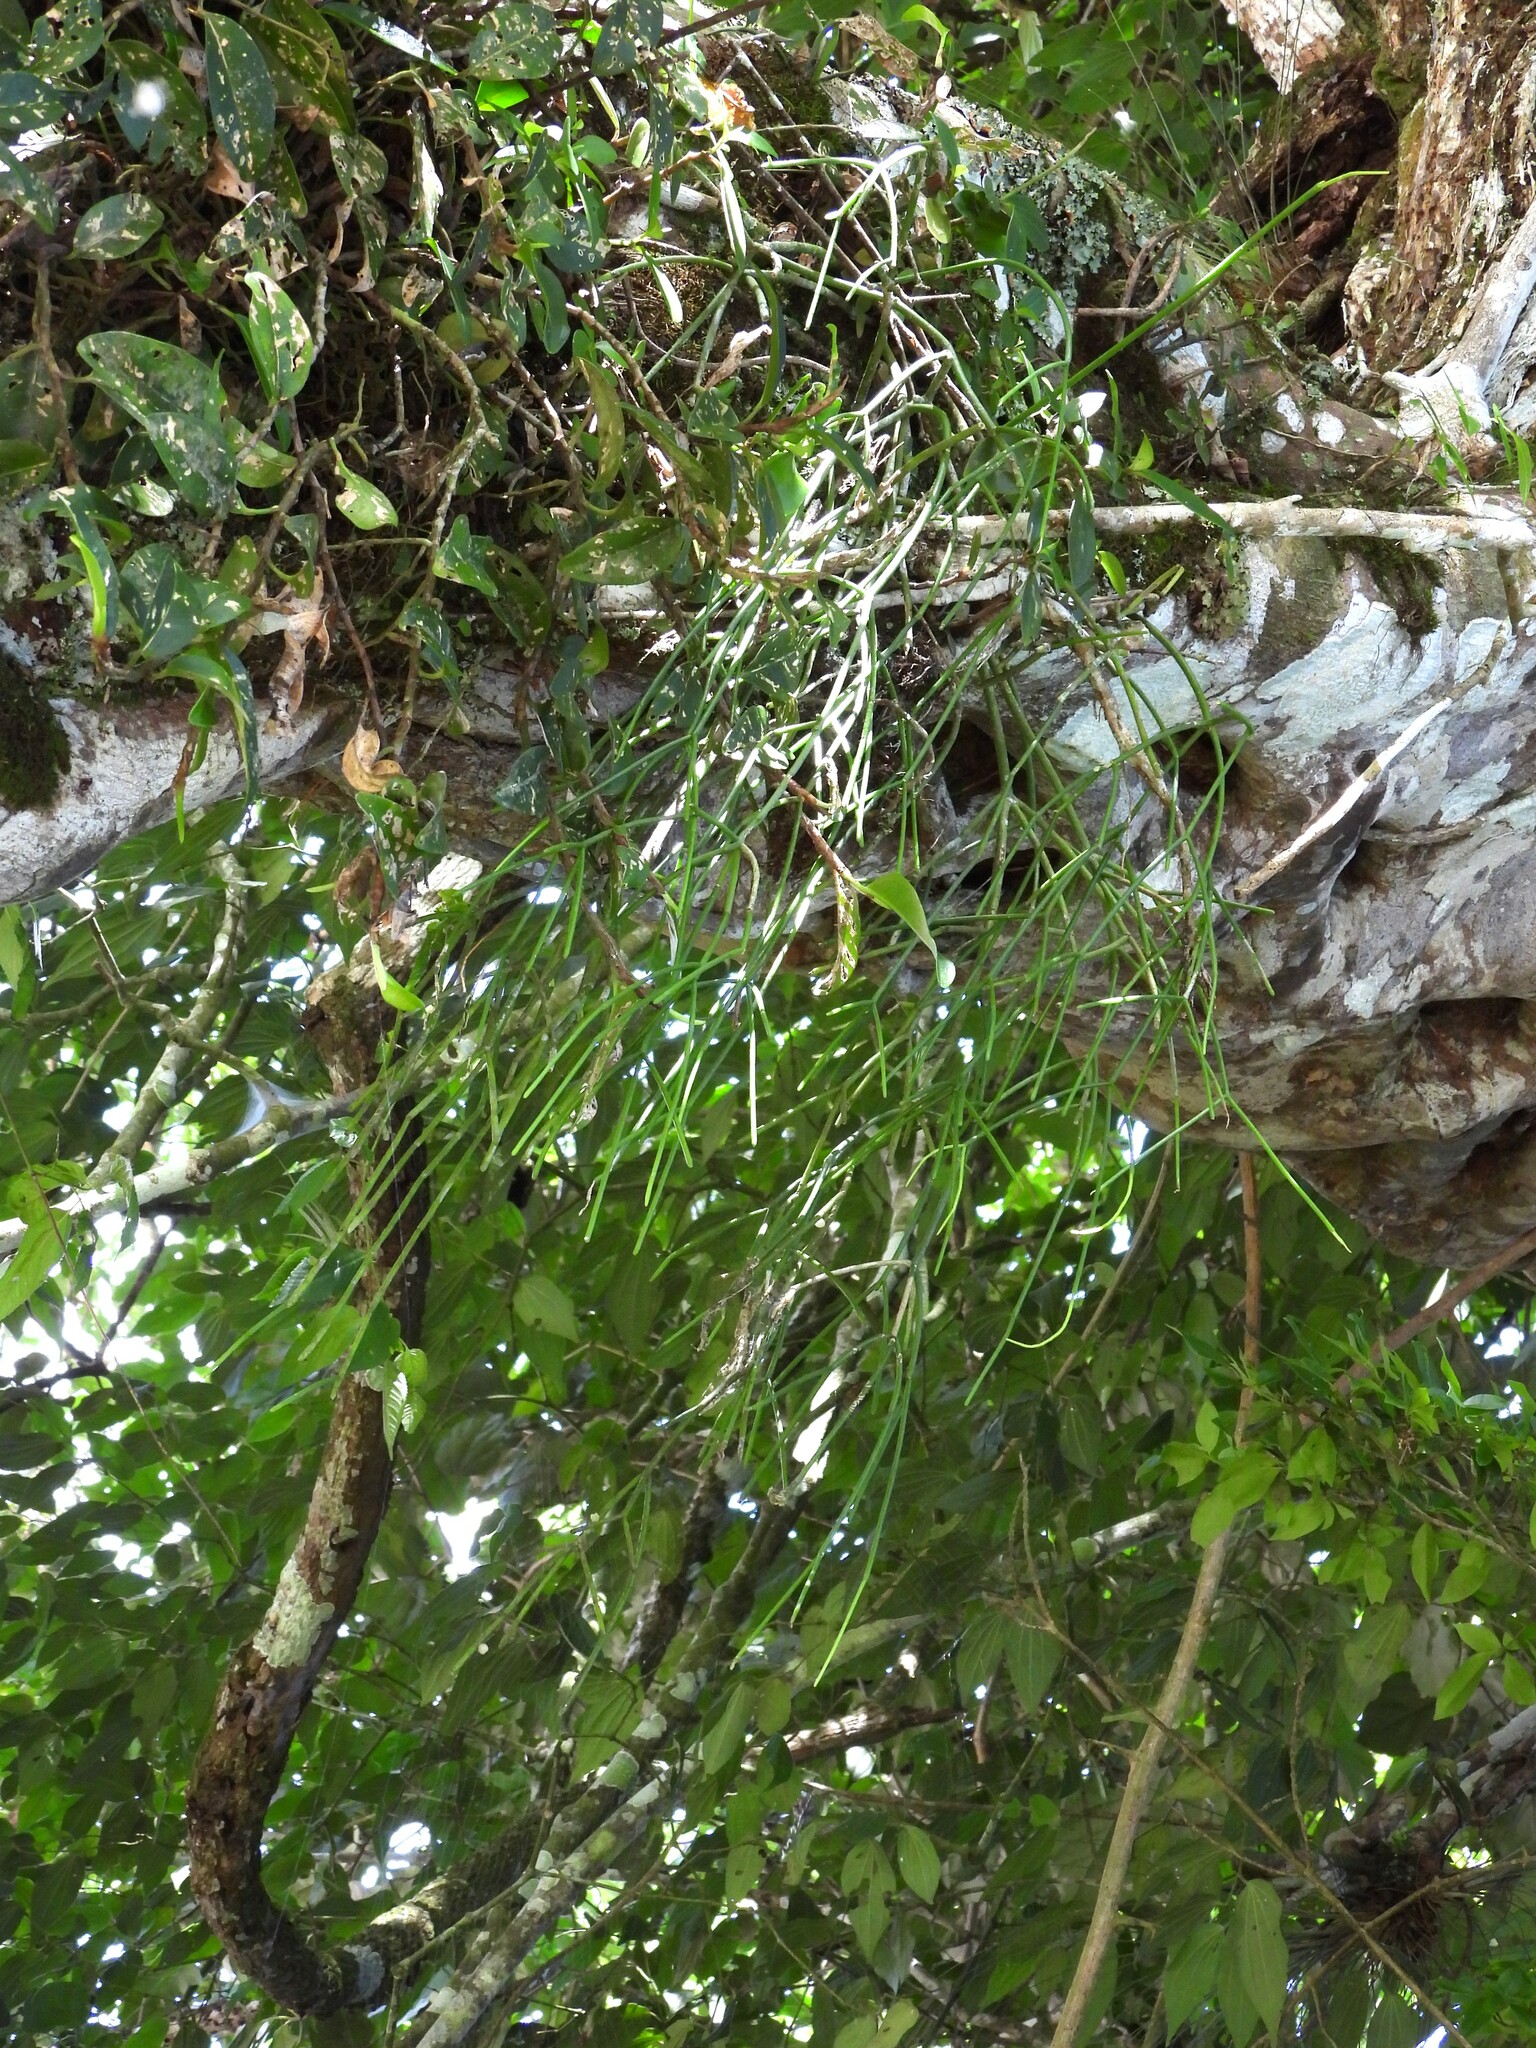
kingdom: Plantae
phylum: Tracheophyta
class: Magnoliopsida
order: Caryophyllales
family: Cactaceae
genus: Rhipsalis
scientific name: Rhipsalis baccifera
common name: Mistletoe cactus
